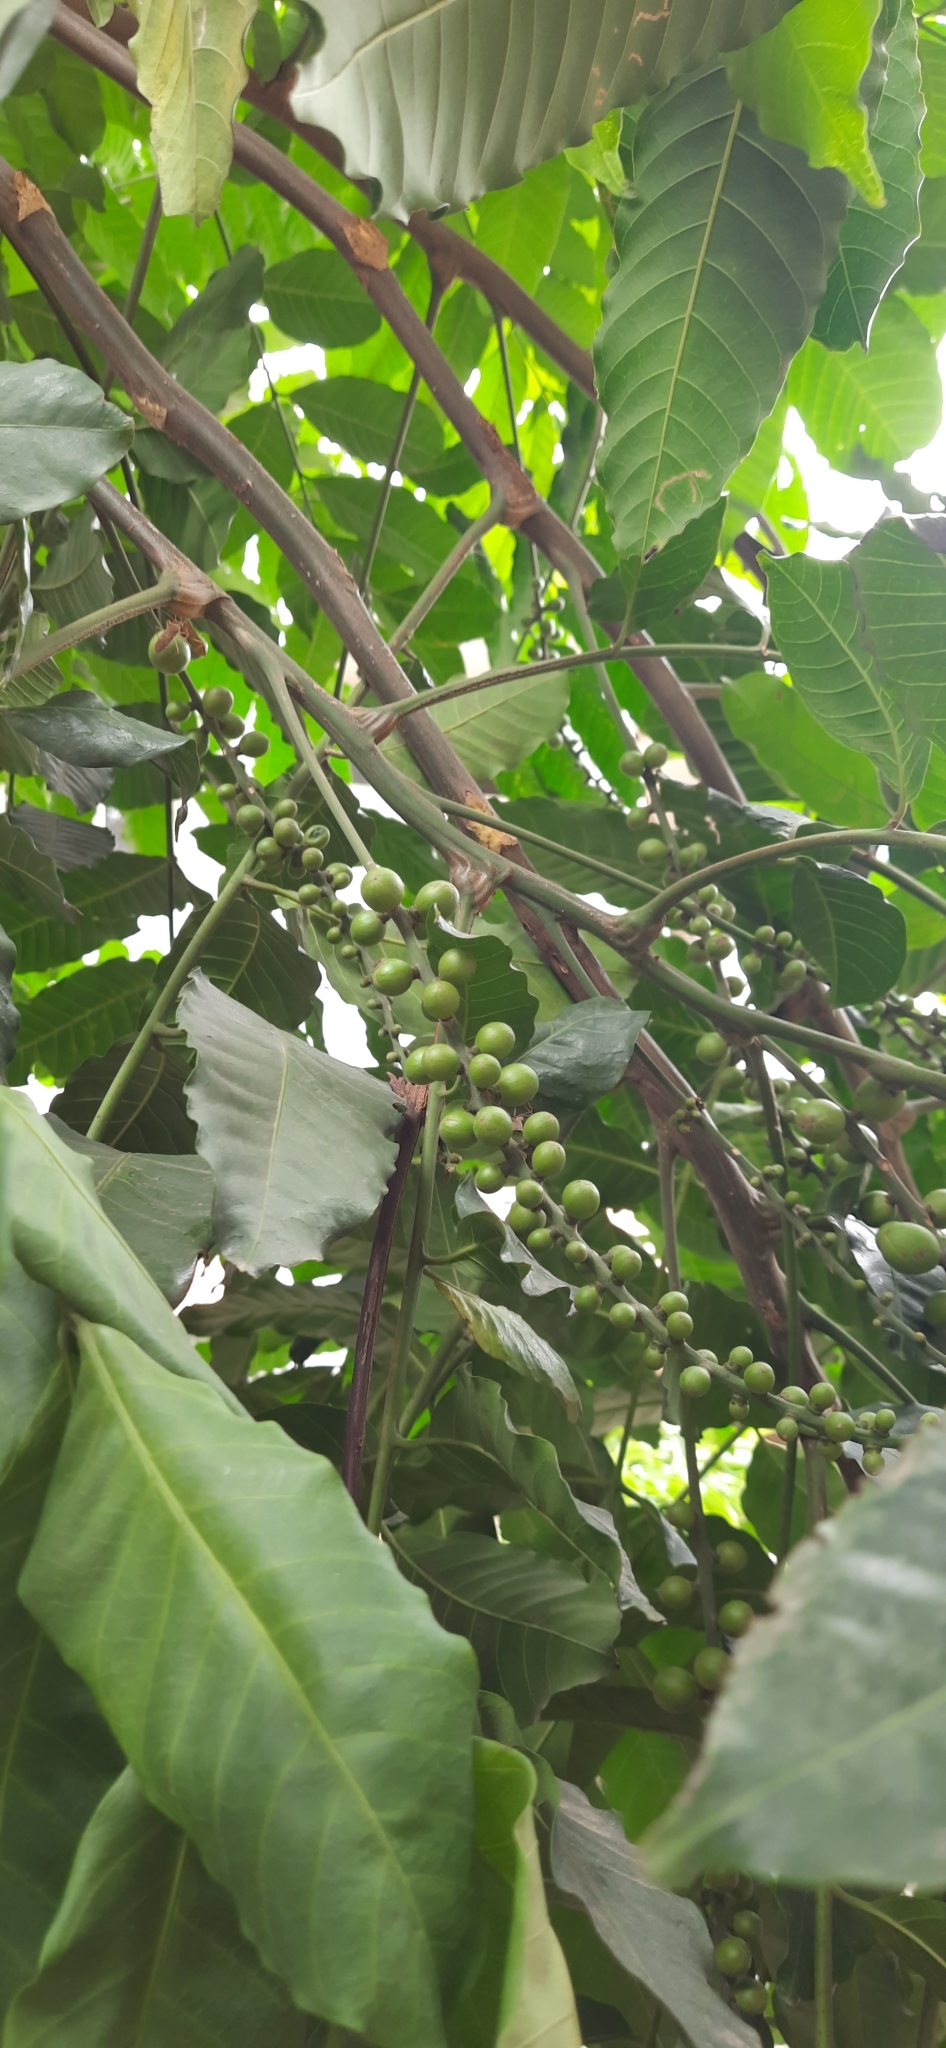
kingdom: Plantae
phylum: Tracheophyta
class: Magnoliopsida
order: Sapindales
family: Meliaceae
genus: Aphanamixis
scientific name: Aphanamixis polystachya
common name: Pithraj tree
